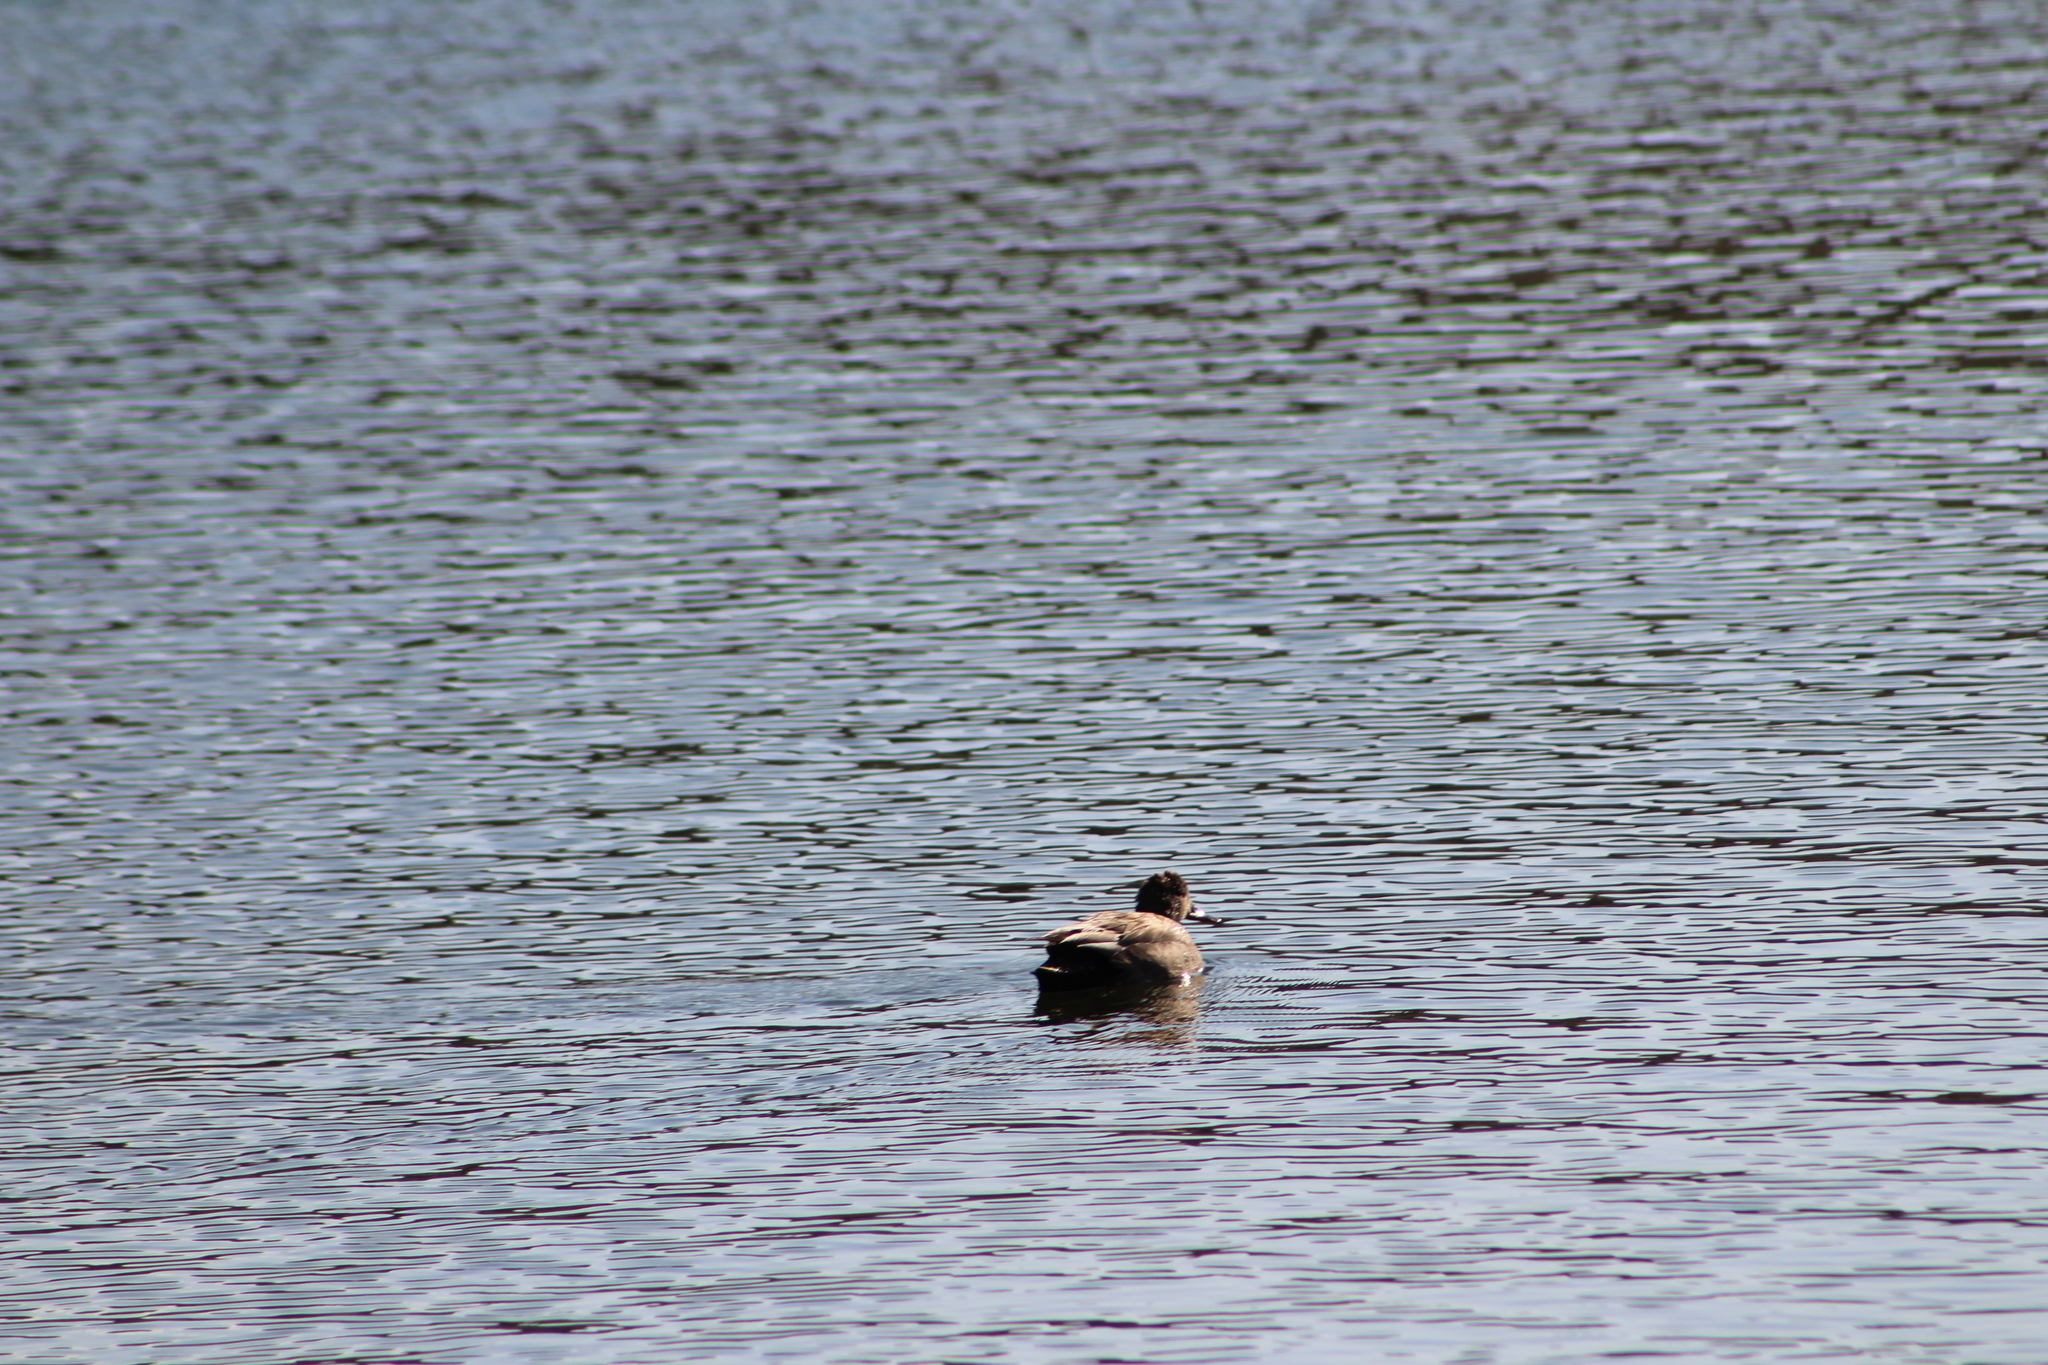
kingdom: Animalia
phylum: Chordata
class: Aves
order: Anseriformes
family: Anatidae
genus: Mareca
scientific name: Mareca strepera
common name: Gadwall
